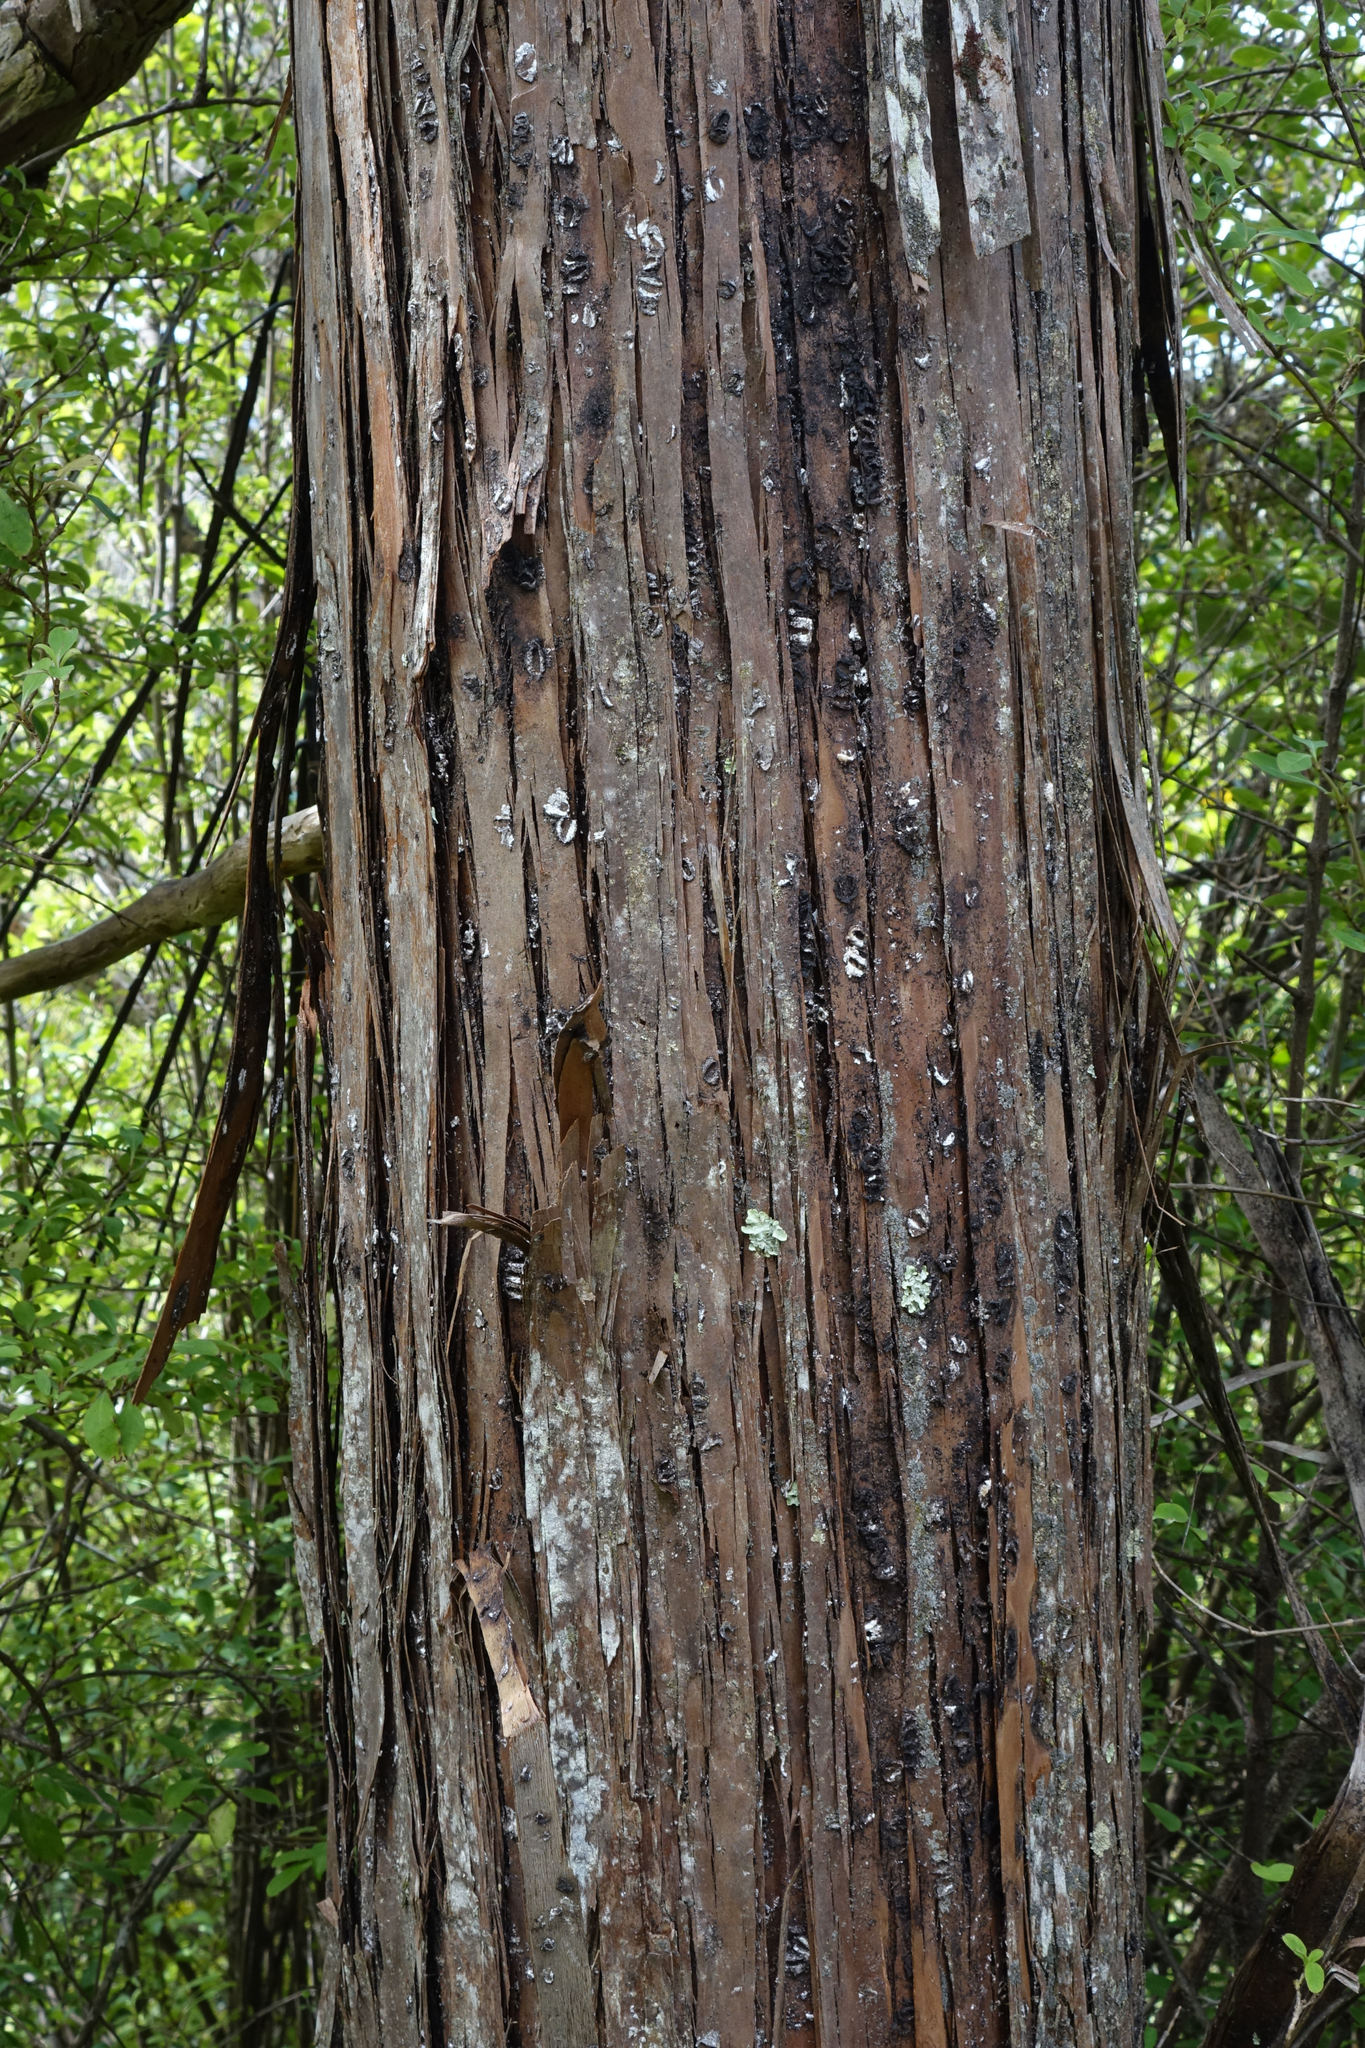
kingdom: Plantae
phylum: Tracheophyta
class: Pinopsida
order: Pinales
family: Cupressaceae
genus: Libocedrus
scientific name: Libocedrus bidwillii
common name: Cedar
